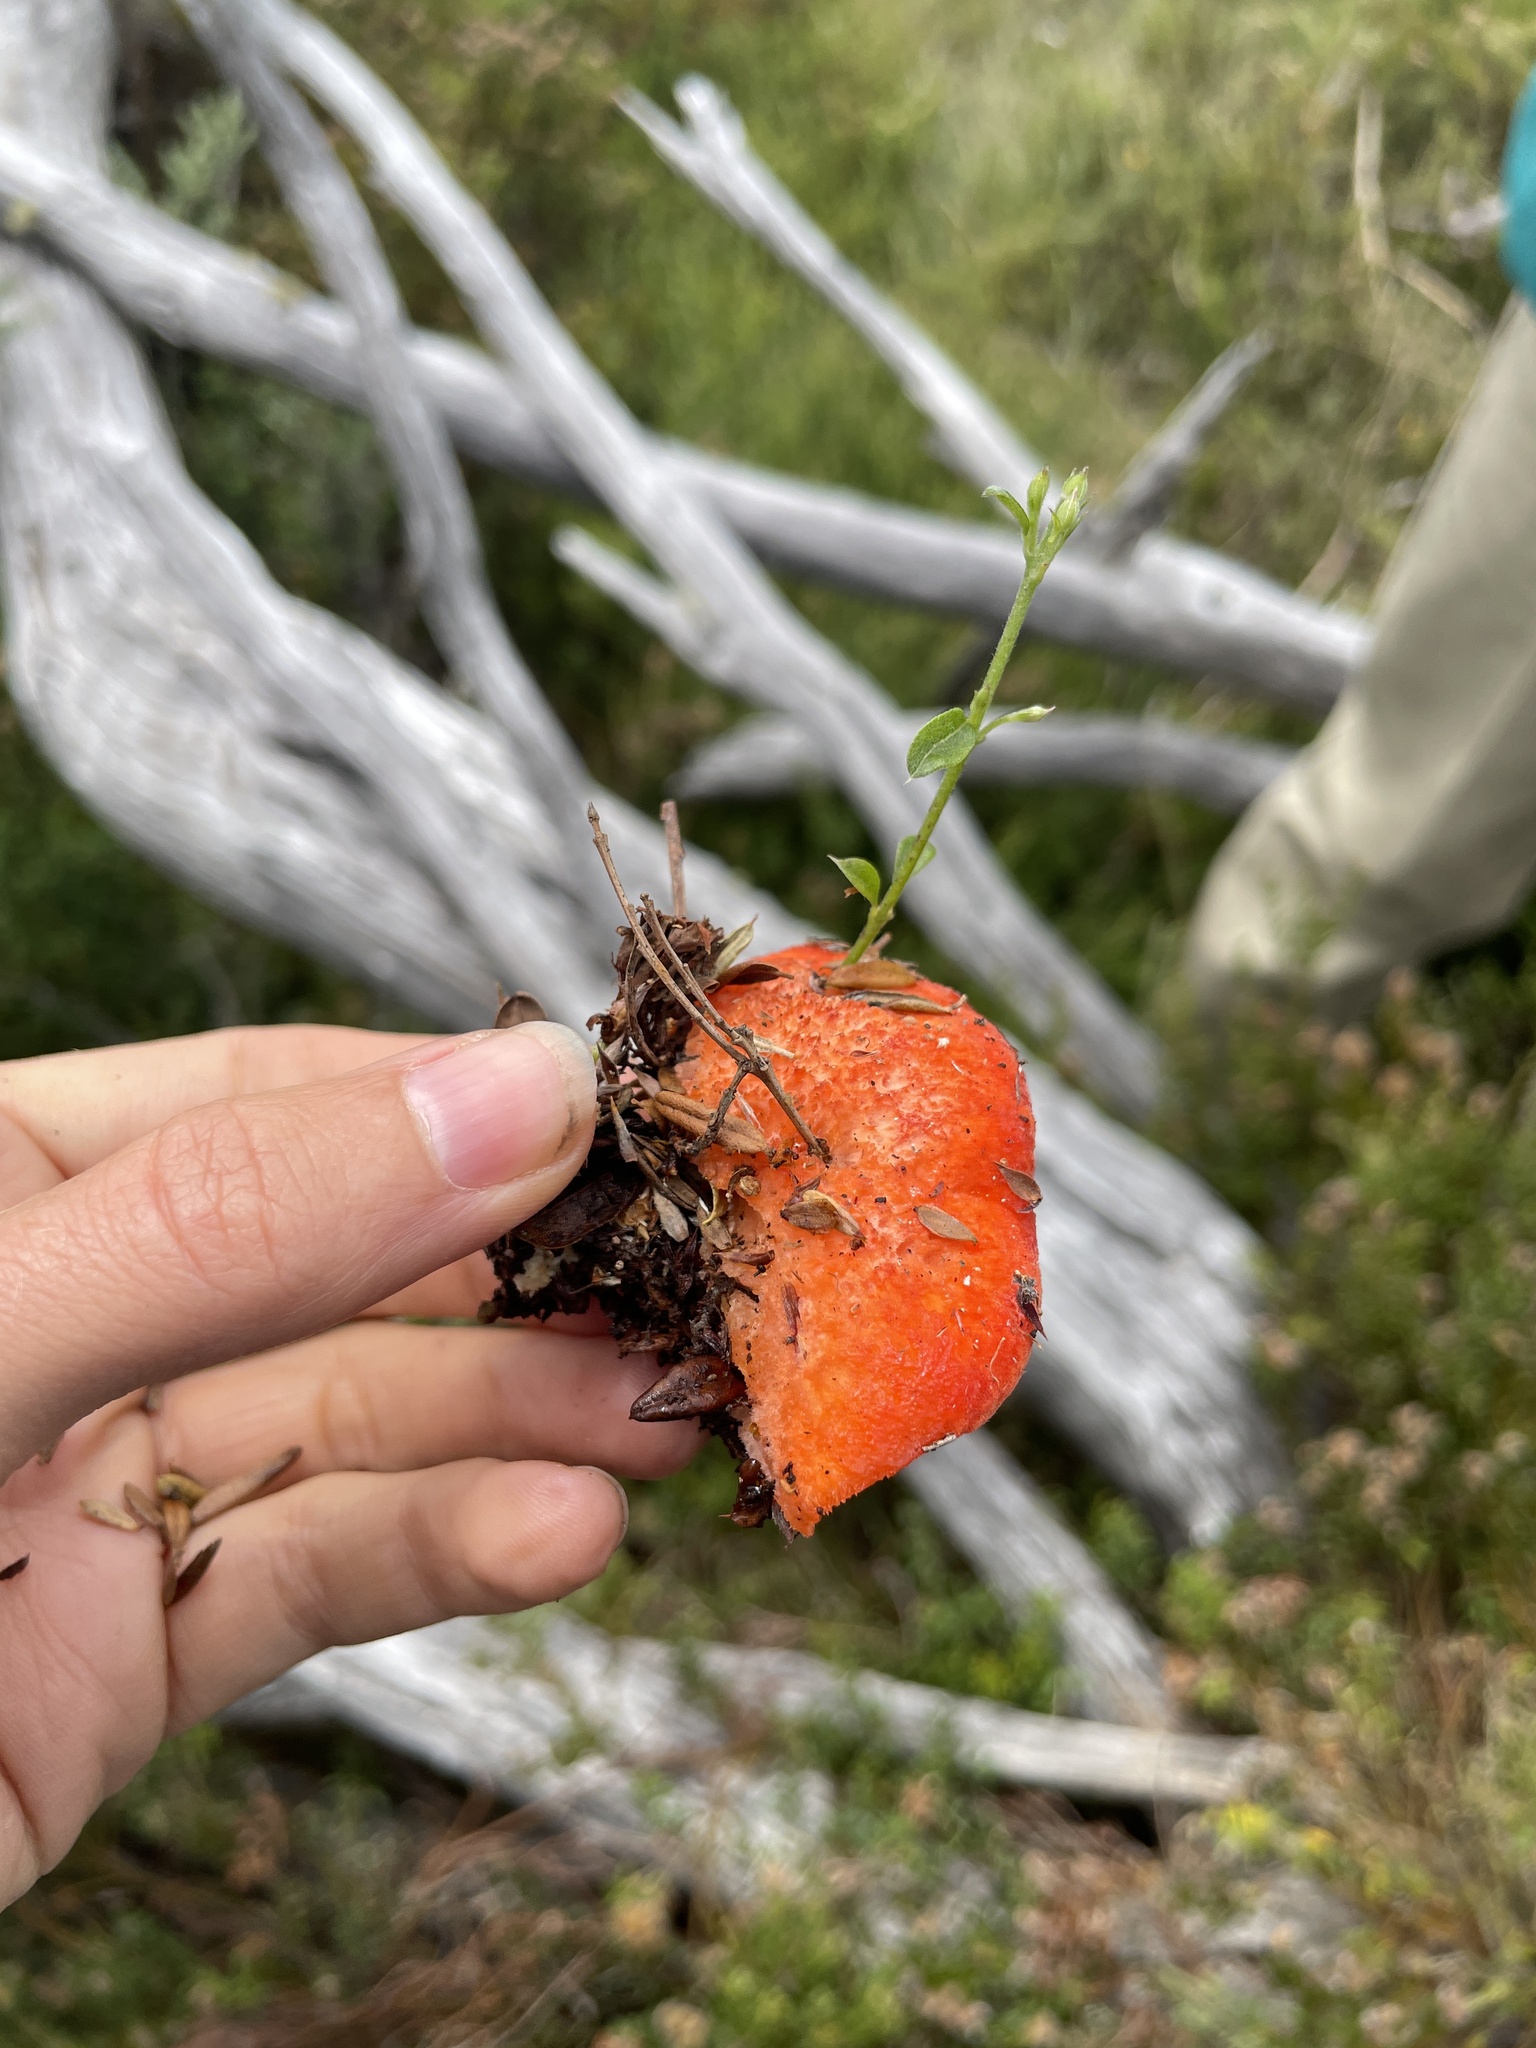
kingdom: Fungi
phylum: Basidiomycota
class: Agaricomycetes
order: Polyporales
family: Incrustoporiaceae
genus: Tyromyces
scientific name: Tyromyces pulcherrimus
